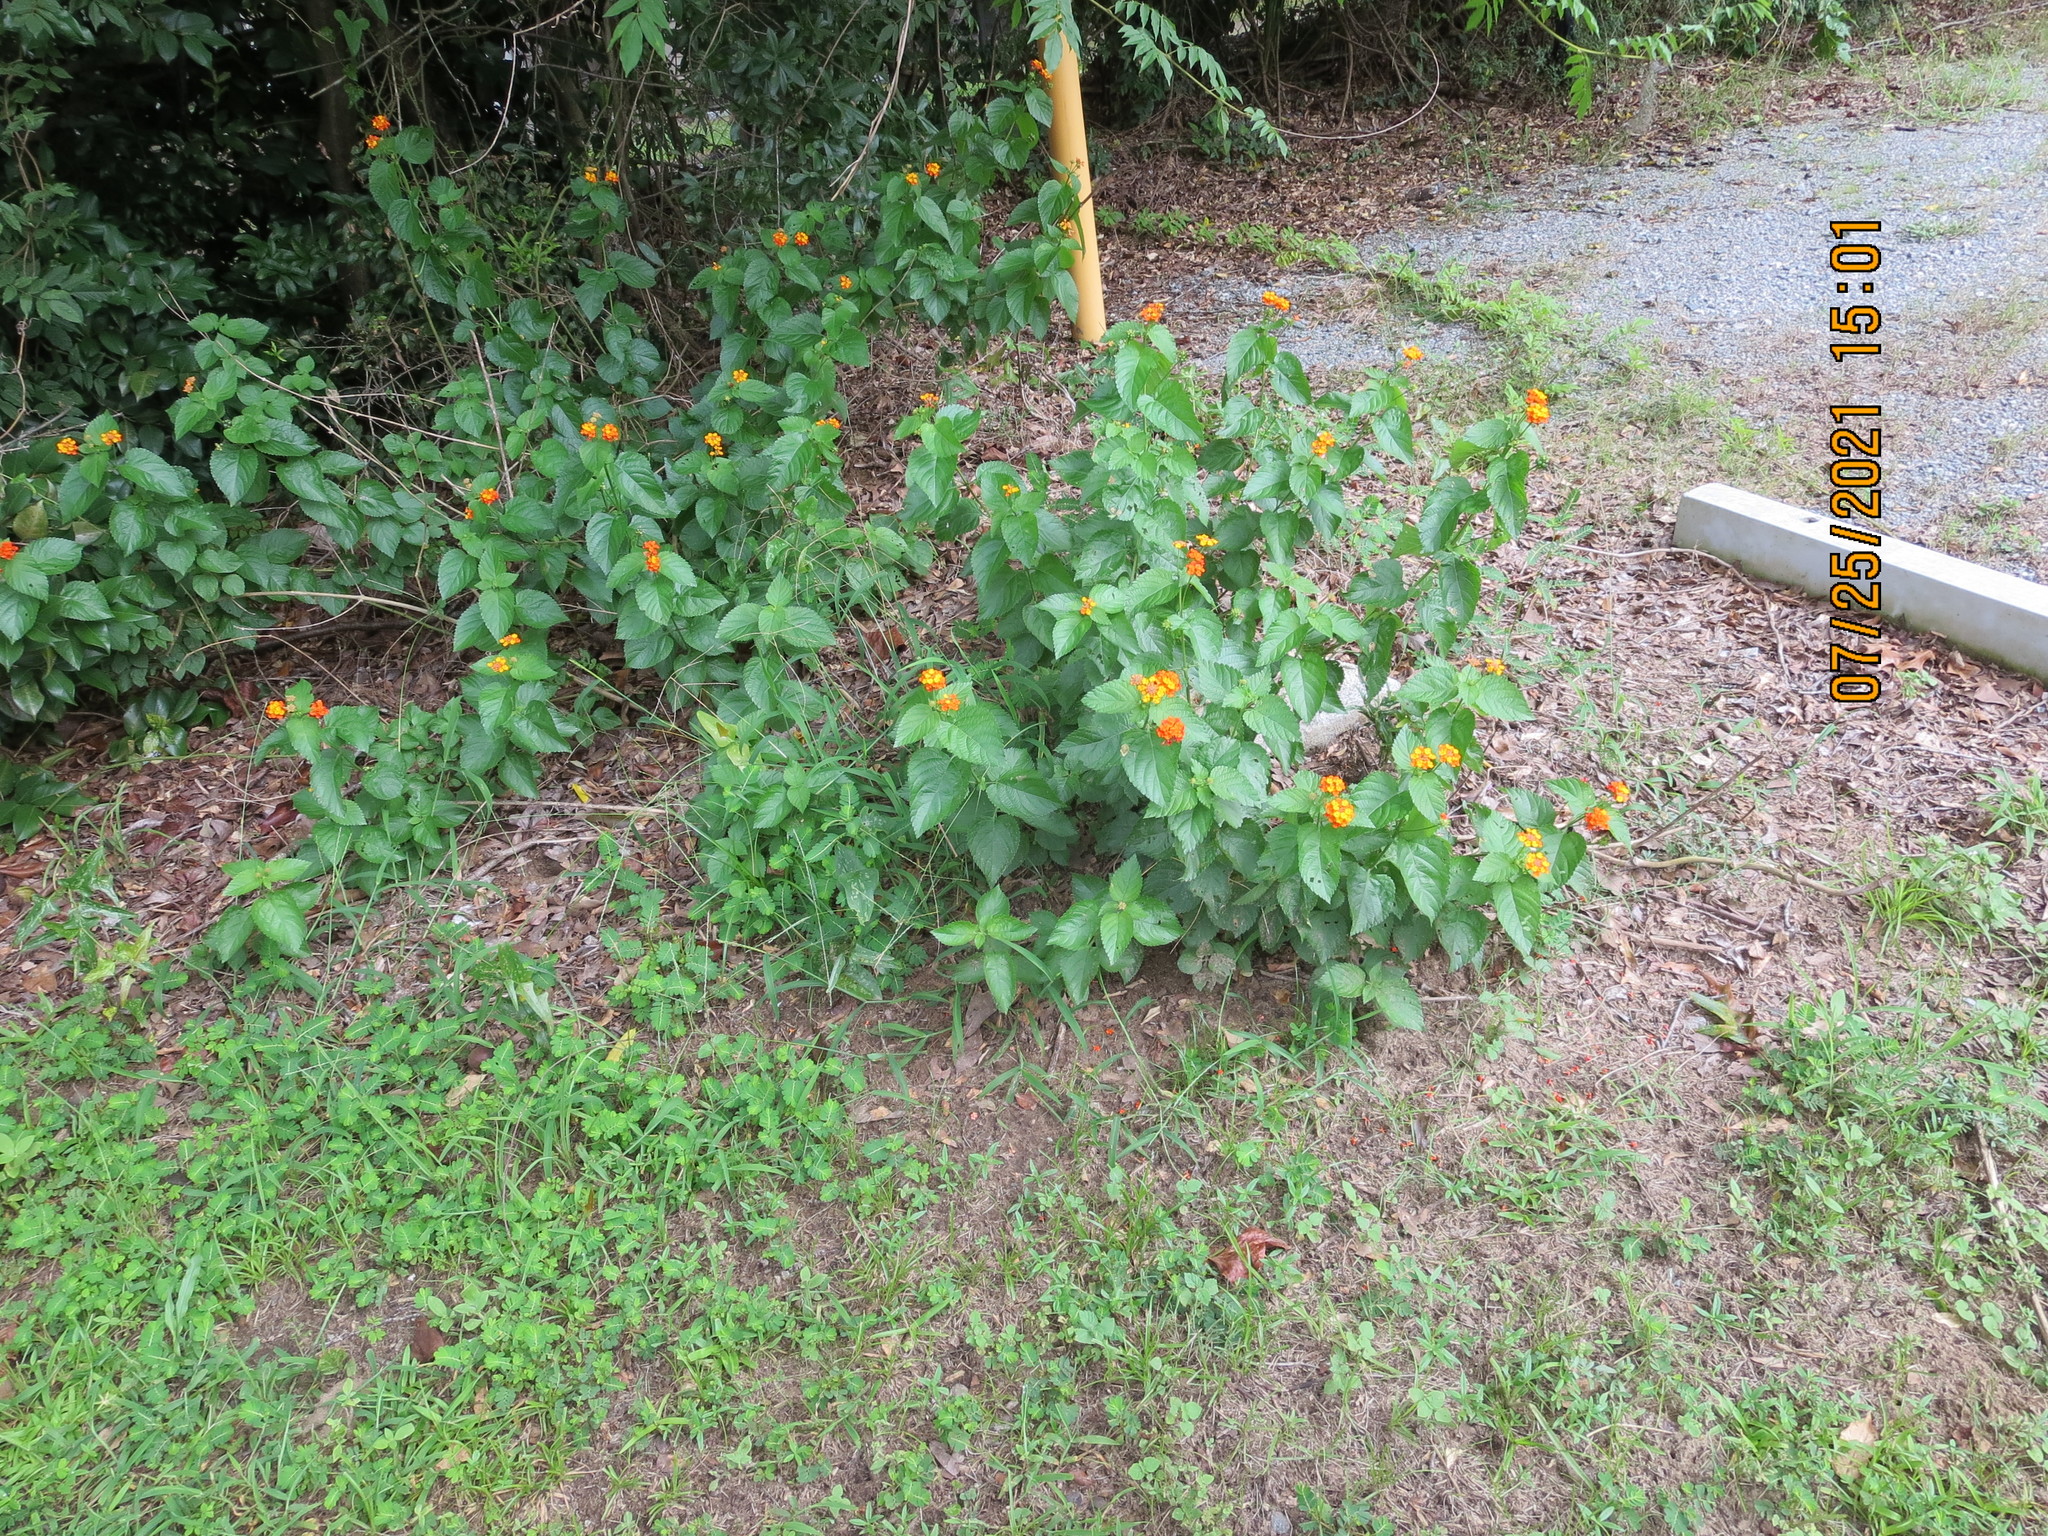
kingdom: Plantae
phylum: Tracheophyta
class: Magnoliopsida
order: Lamiales
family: Verbenaceae
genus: Lantana
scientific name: Lantana camara
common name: Lantana
